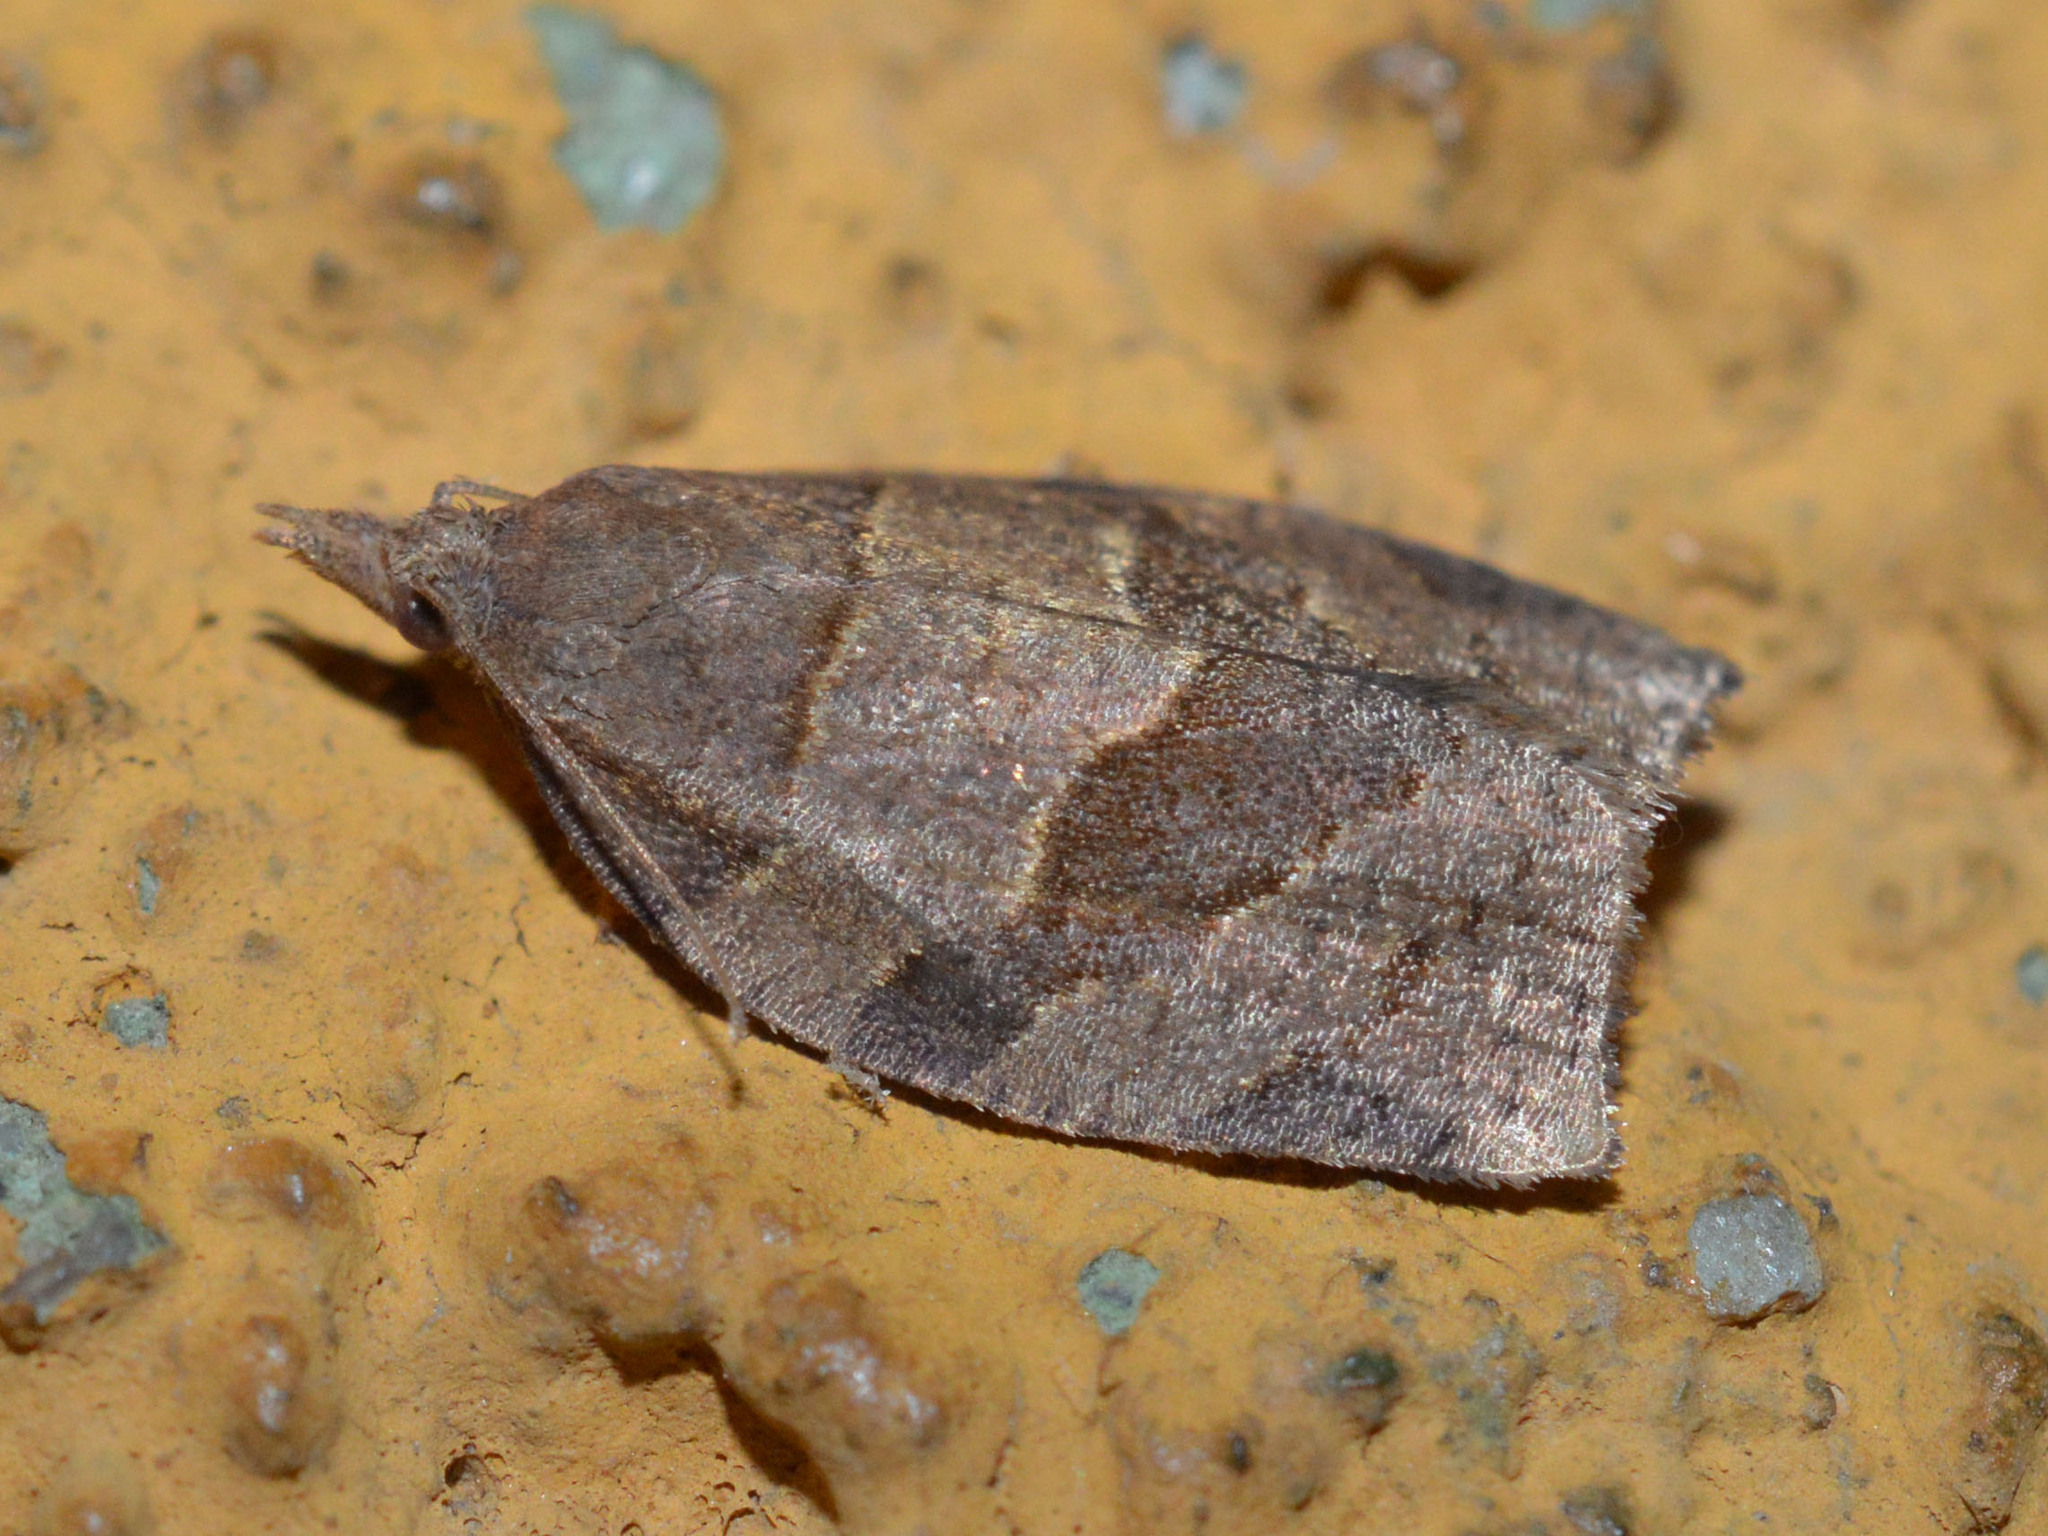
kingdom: Animalia
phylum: Arthropoda
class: Insecta
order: Lepidoptera
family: Tortricidae
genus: Pandemis
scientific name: Pandemis dumetana
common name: Thicket twist
